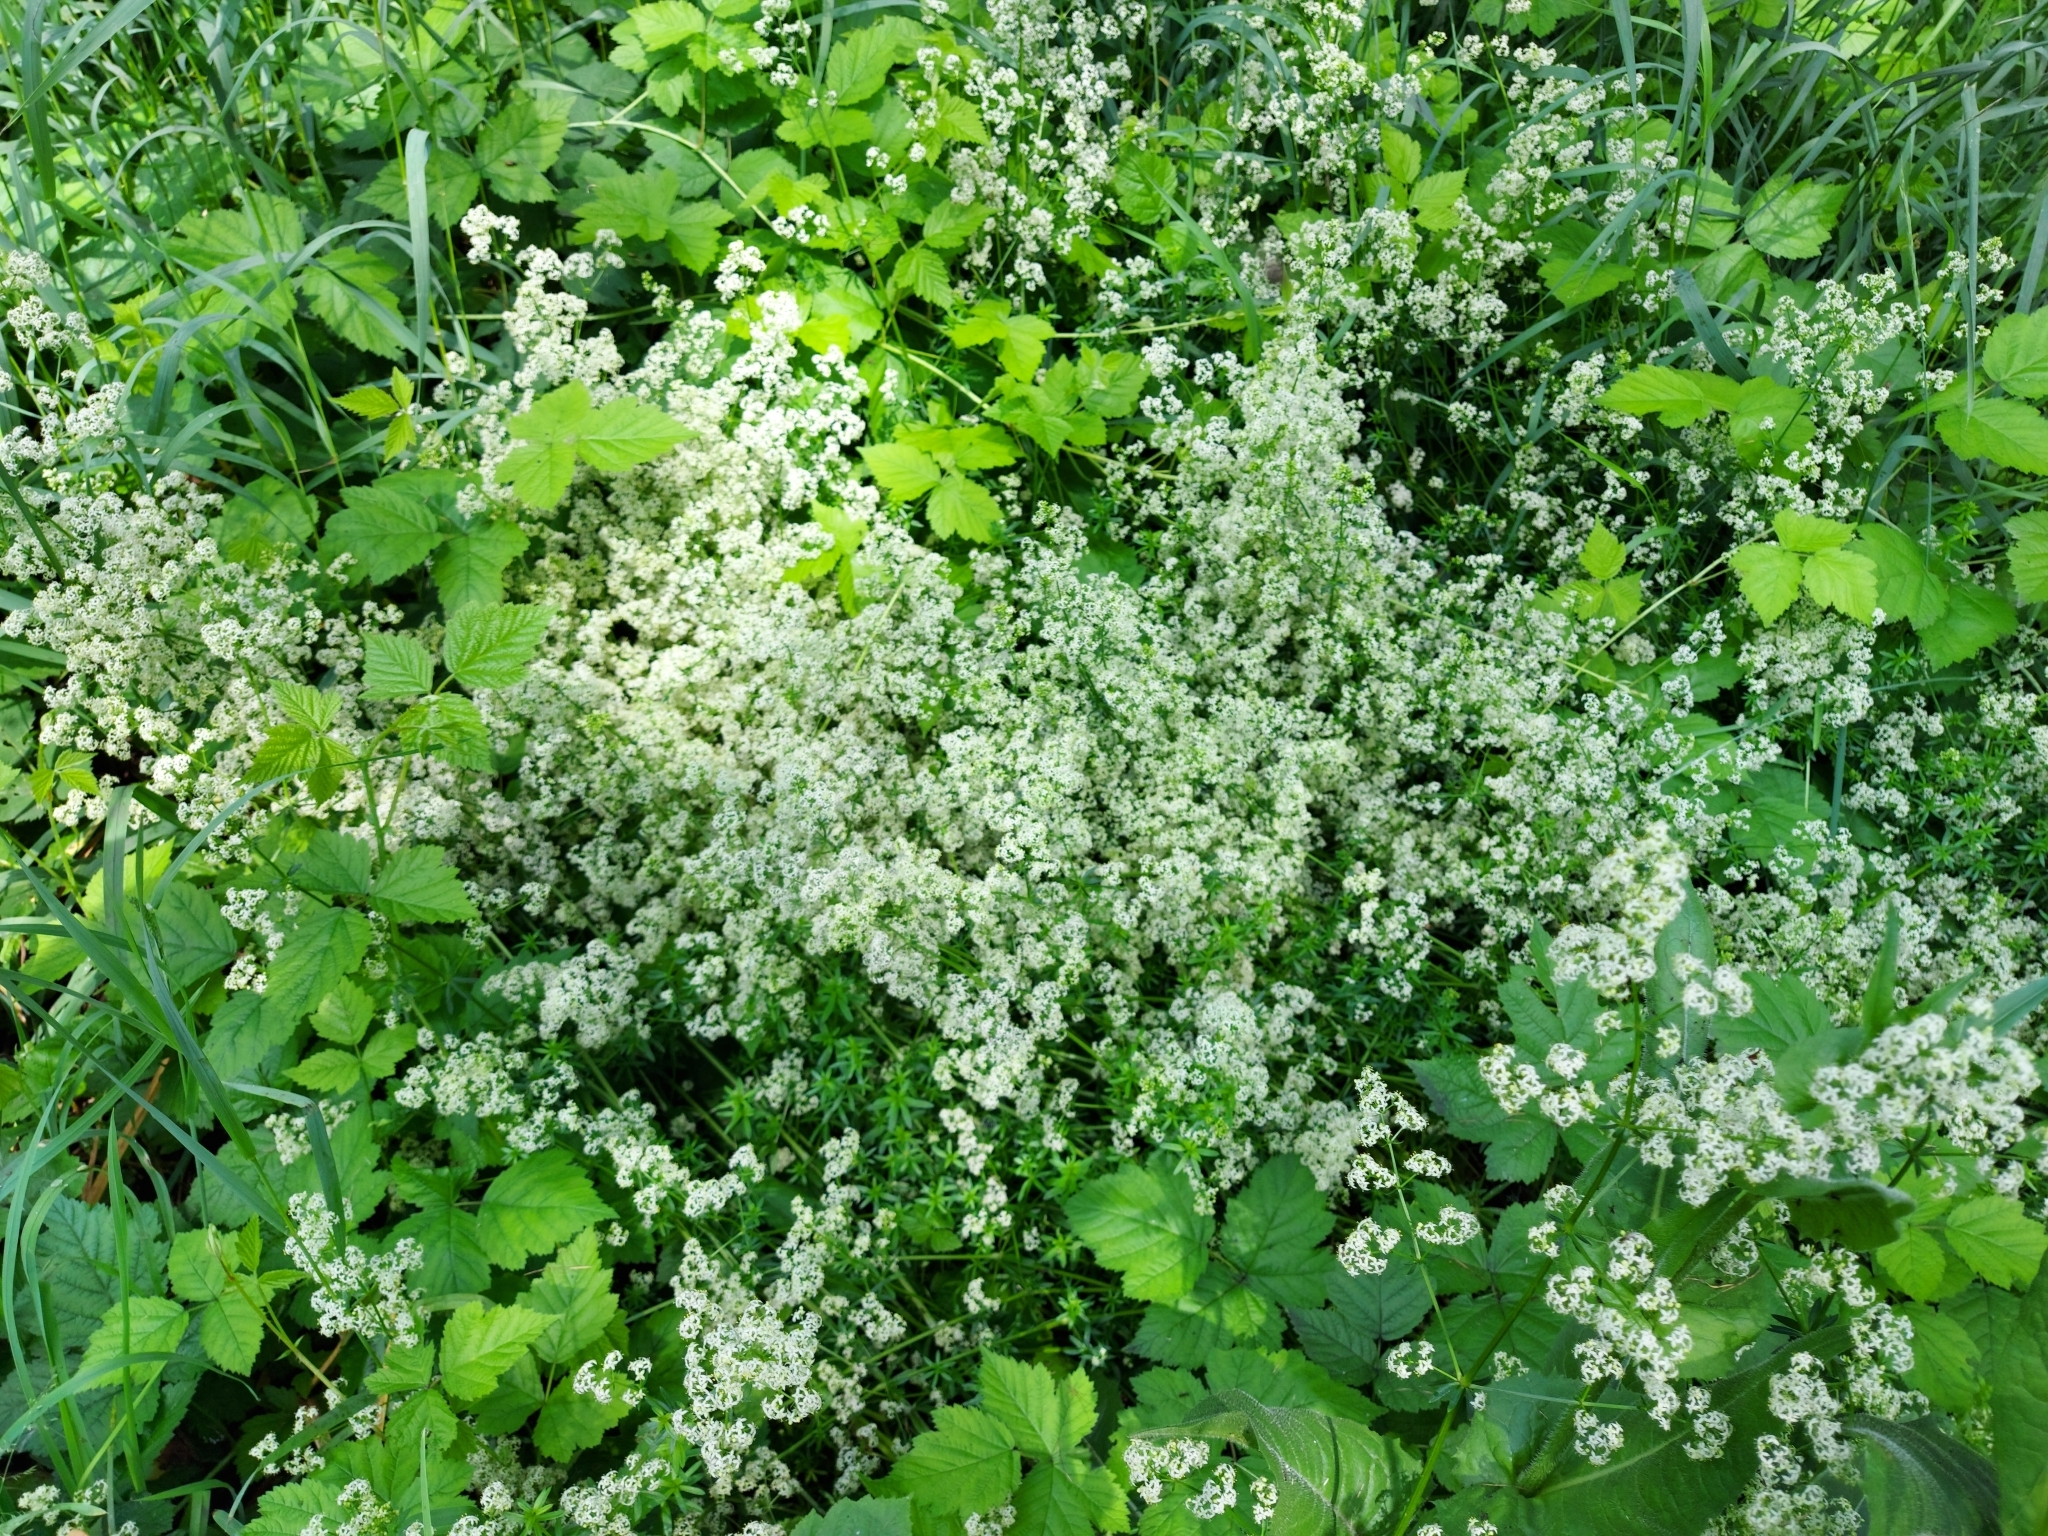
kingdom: Plantae
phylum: Tracheophyta
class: Magnoliopsida
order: Gentianales
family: Rubiaceae
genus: Galium
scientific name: Galium mollugo
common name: Hedge bedstraw
